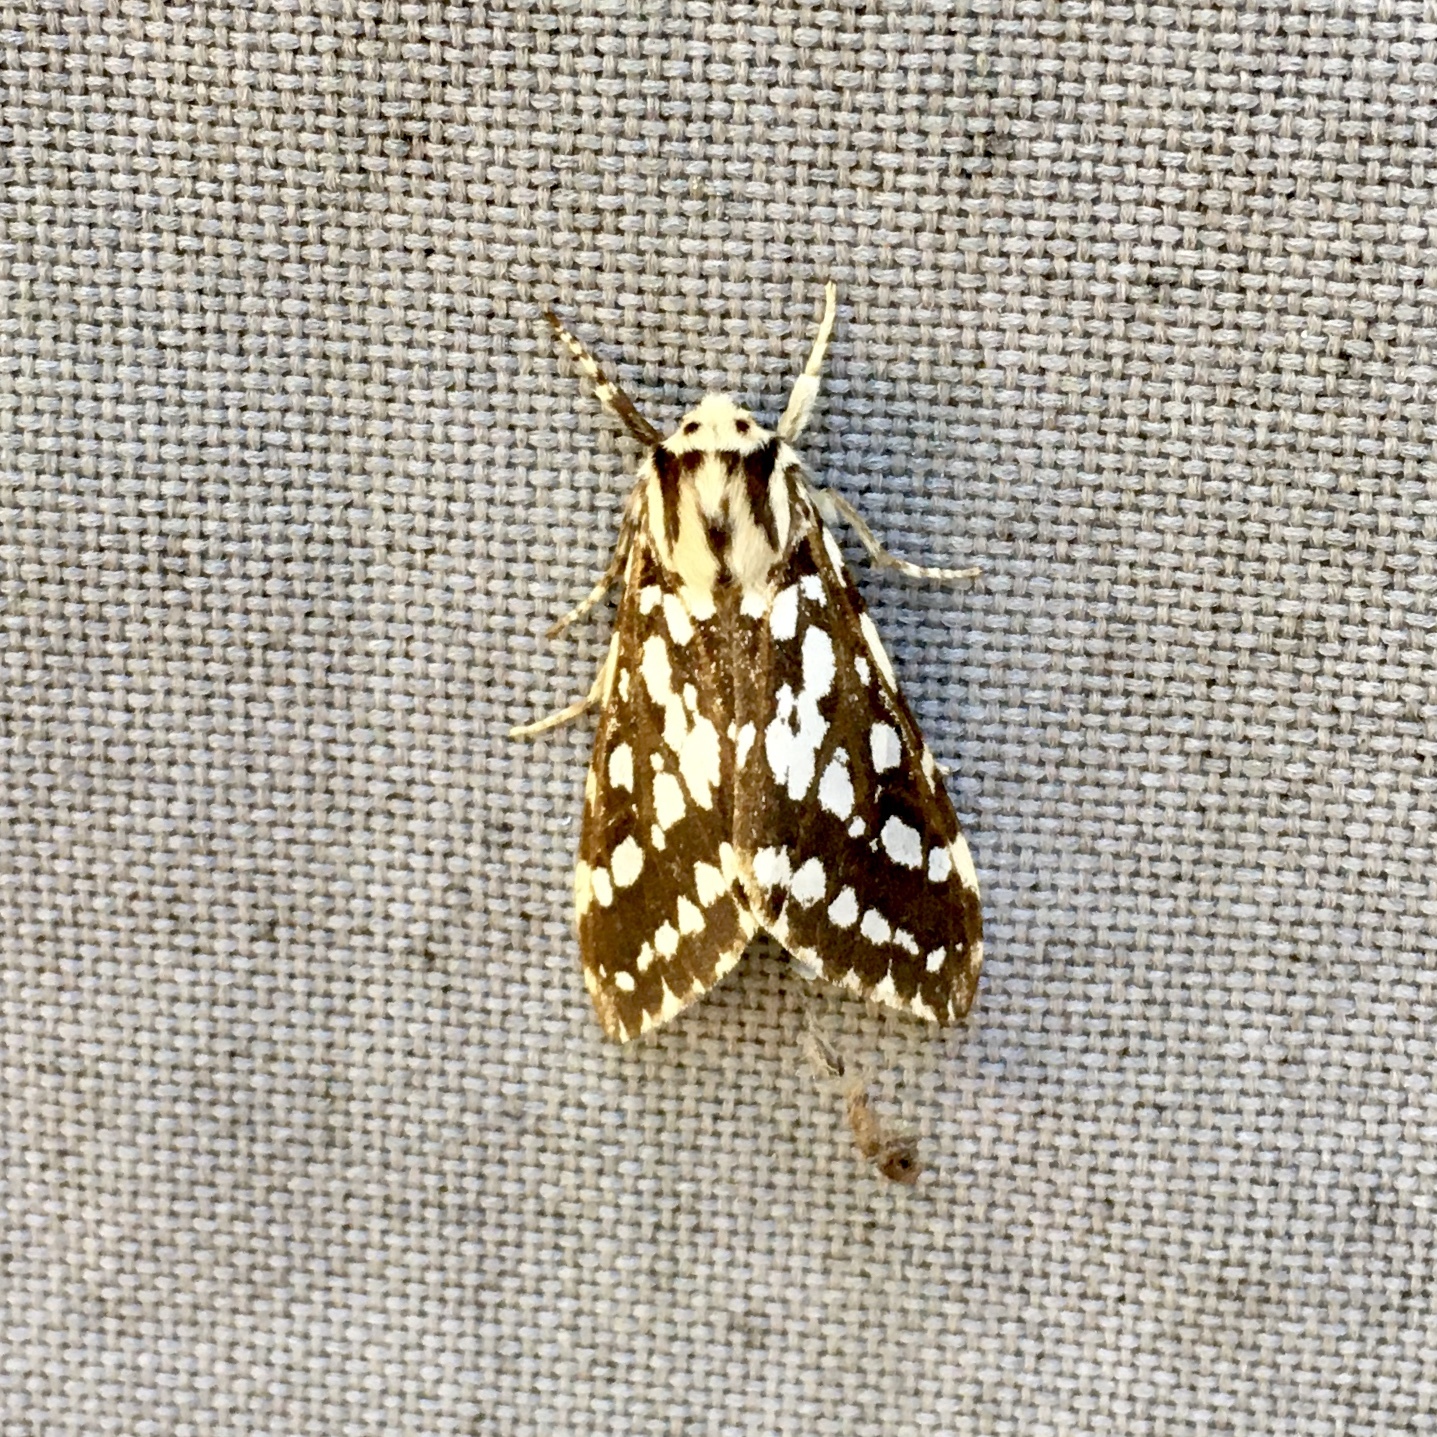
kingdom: Animalia
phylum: Arthropoda
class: Insecta
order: Lepidoptera
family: Erebidae
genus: Lophocampa
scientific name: Lophocampa argentata
